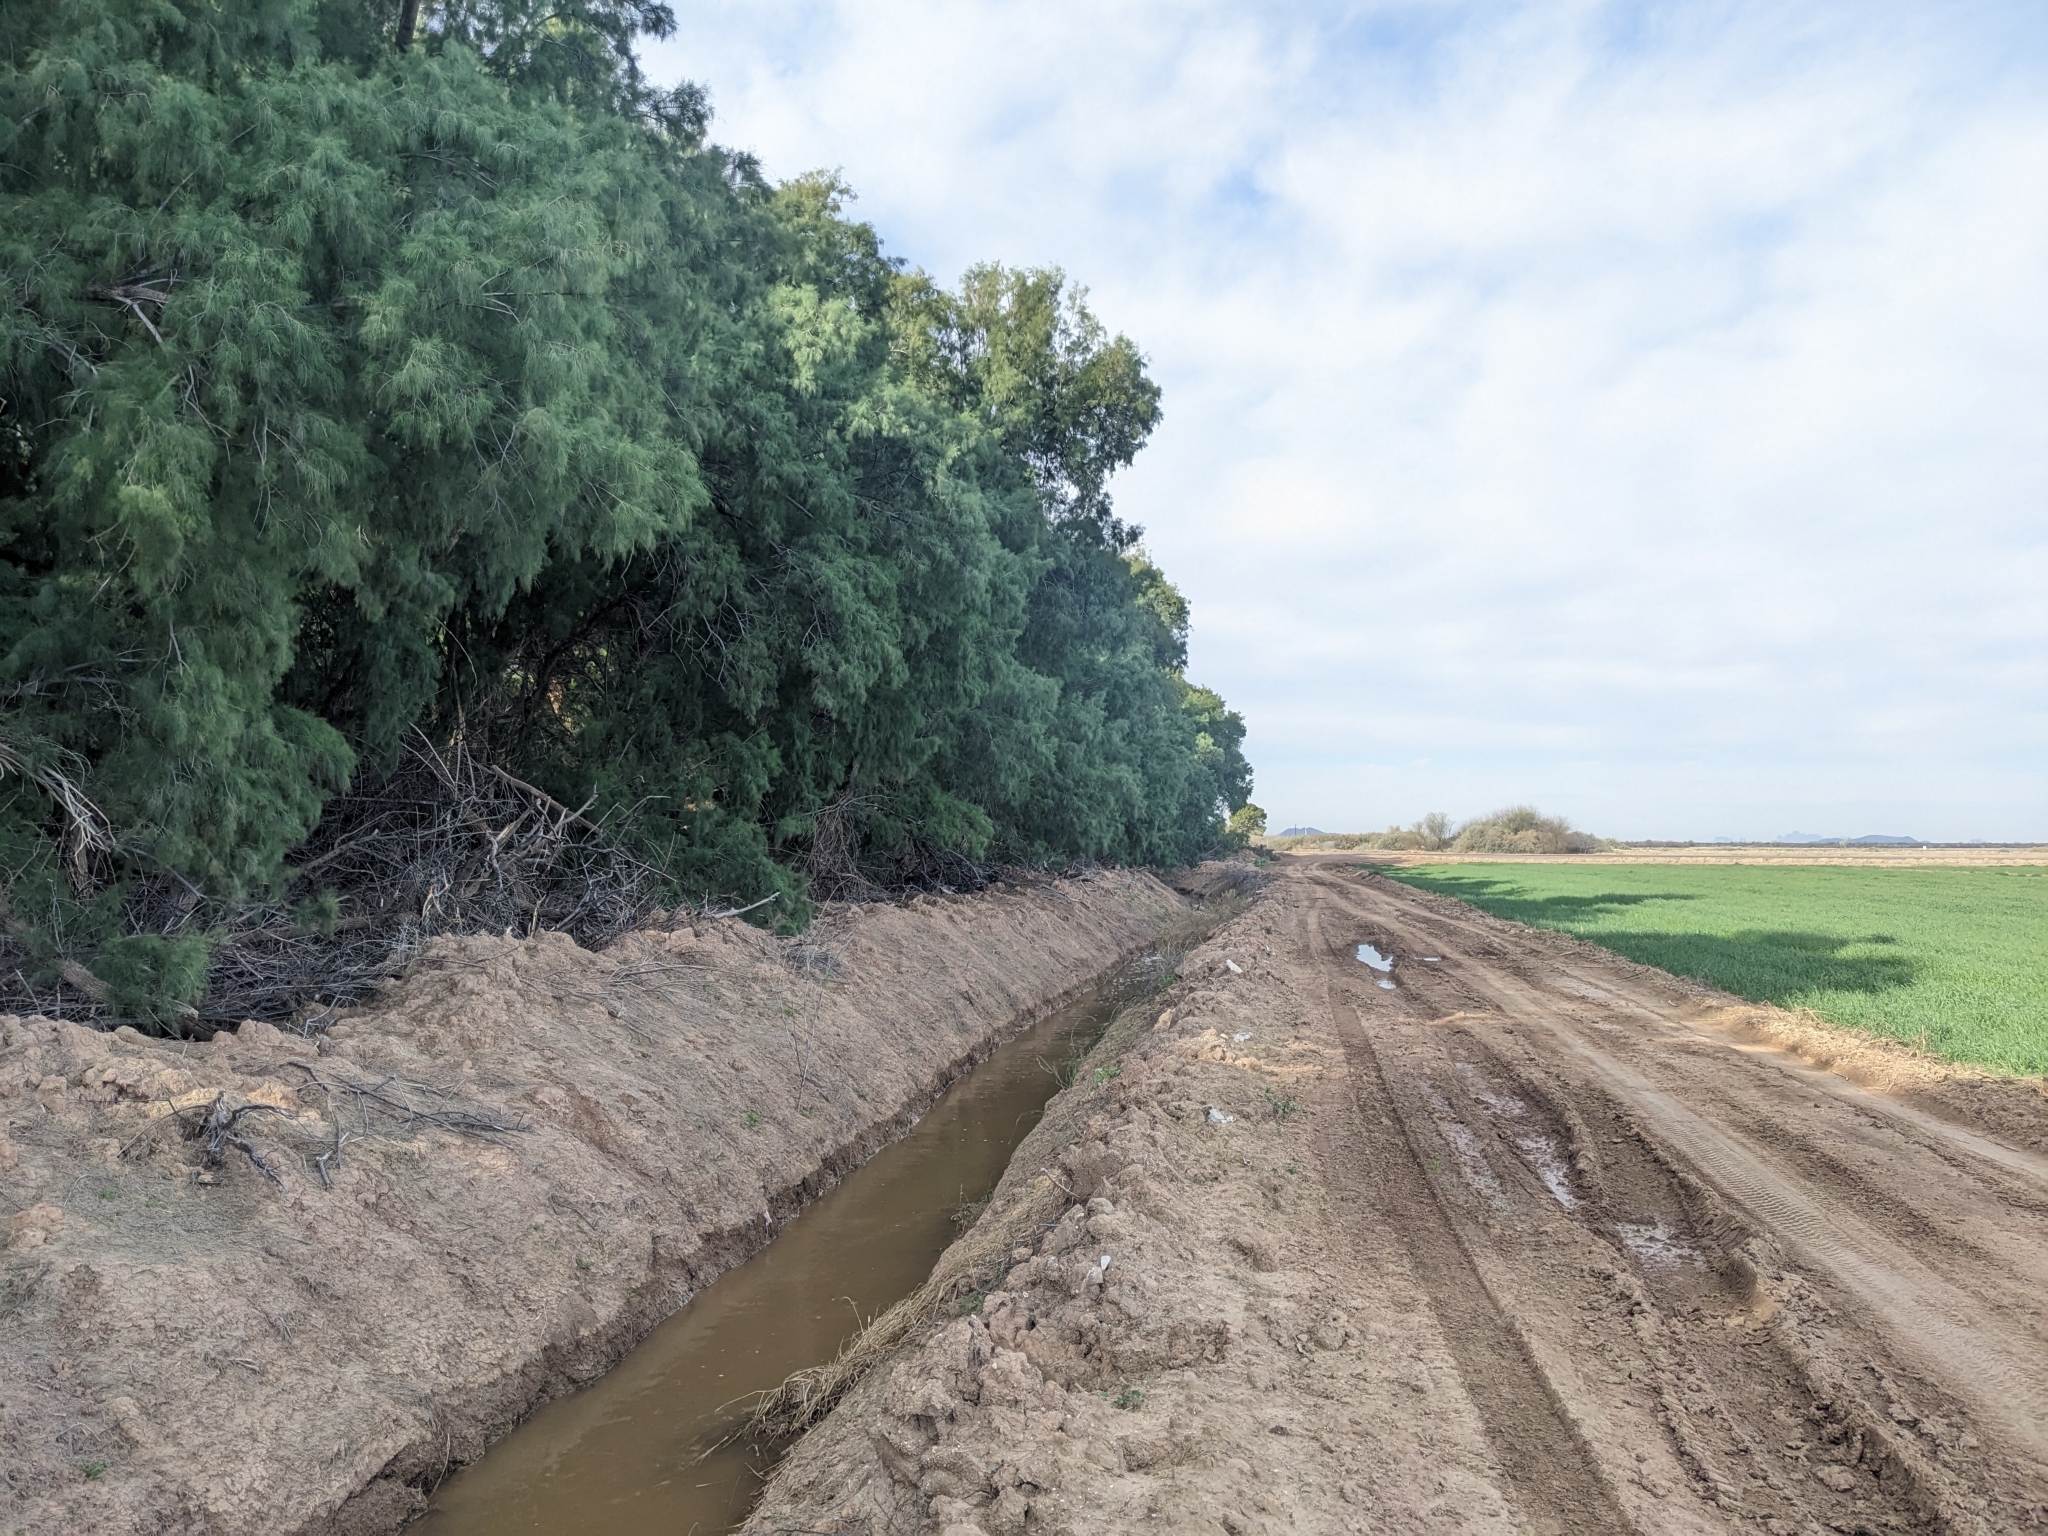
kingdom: Plantae
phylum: Tracheophyta
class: Magnoliopsida
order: Caryophyllales
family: Tamaricaceae
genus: Tamarix
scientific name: Tamarix aphylla
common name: Athel tamarisk
